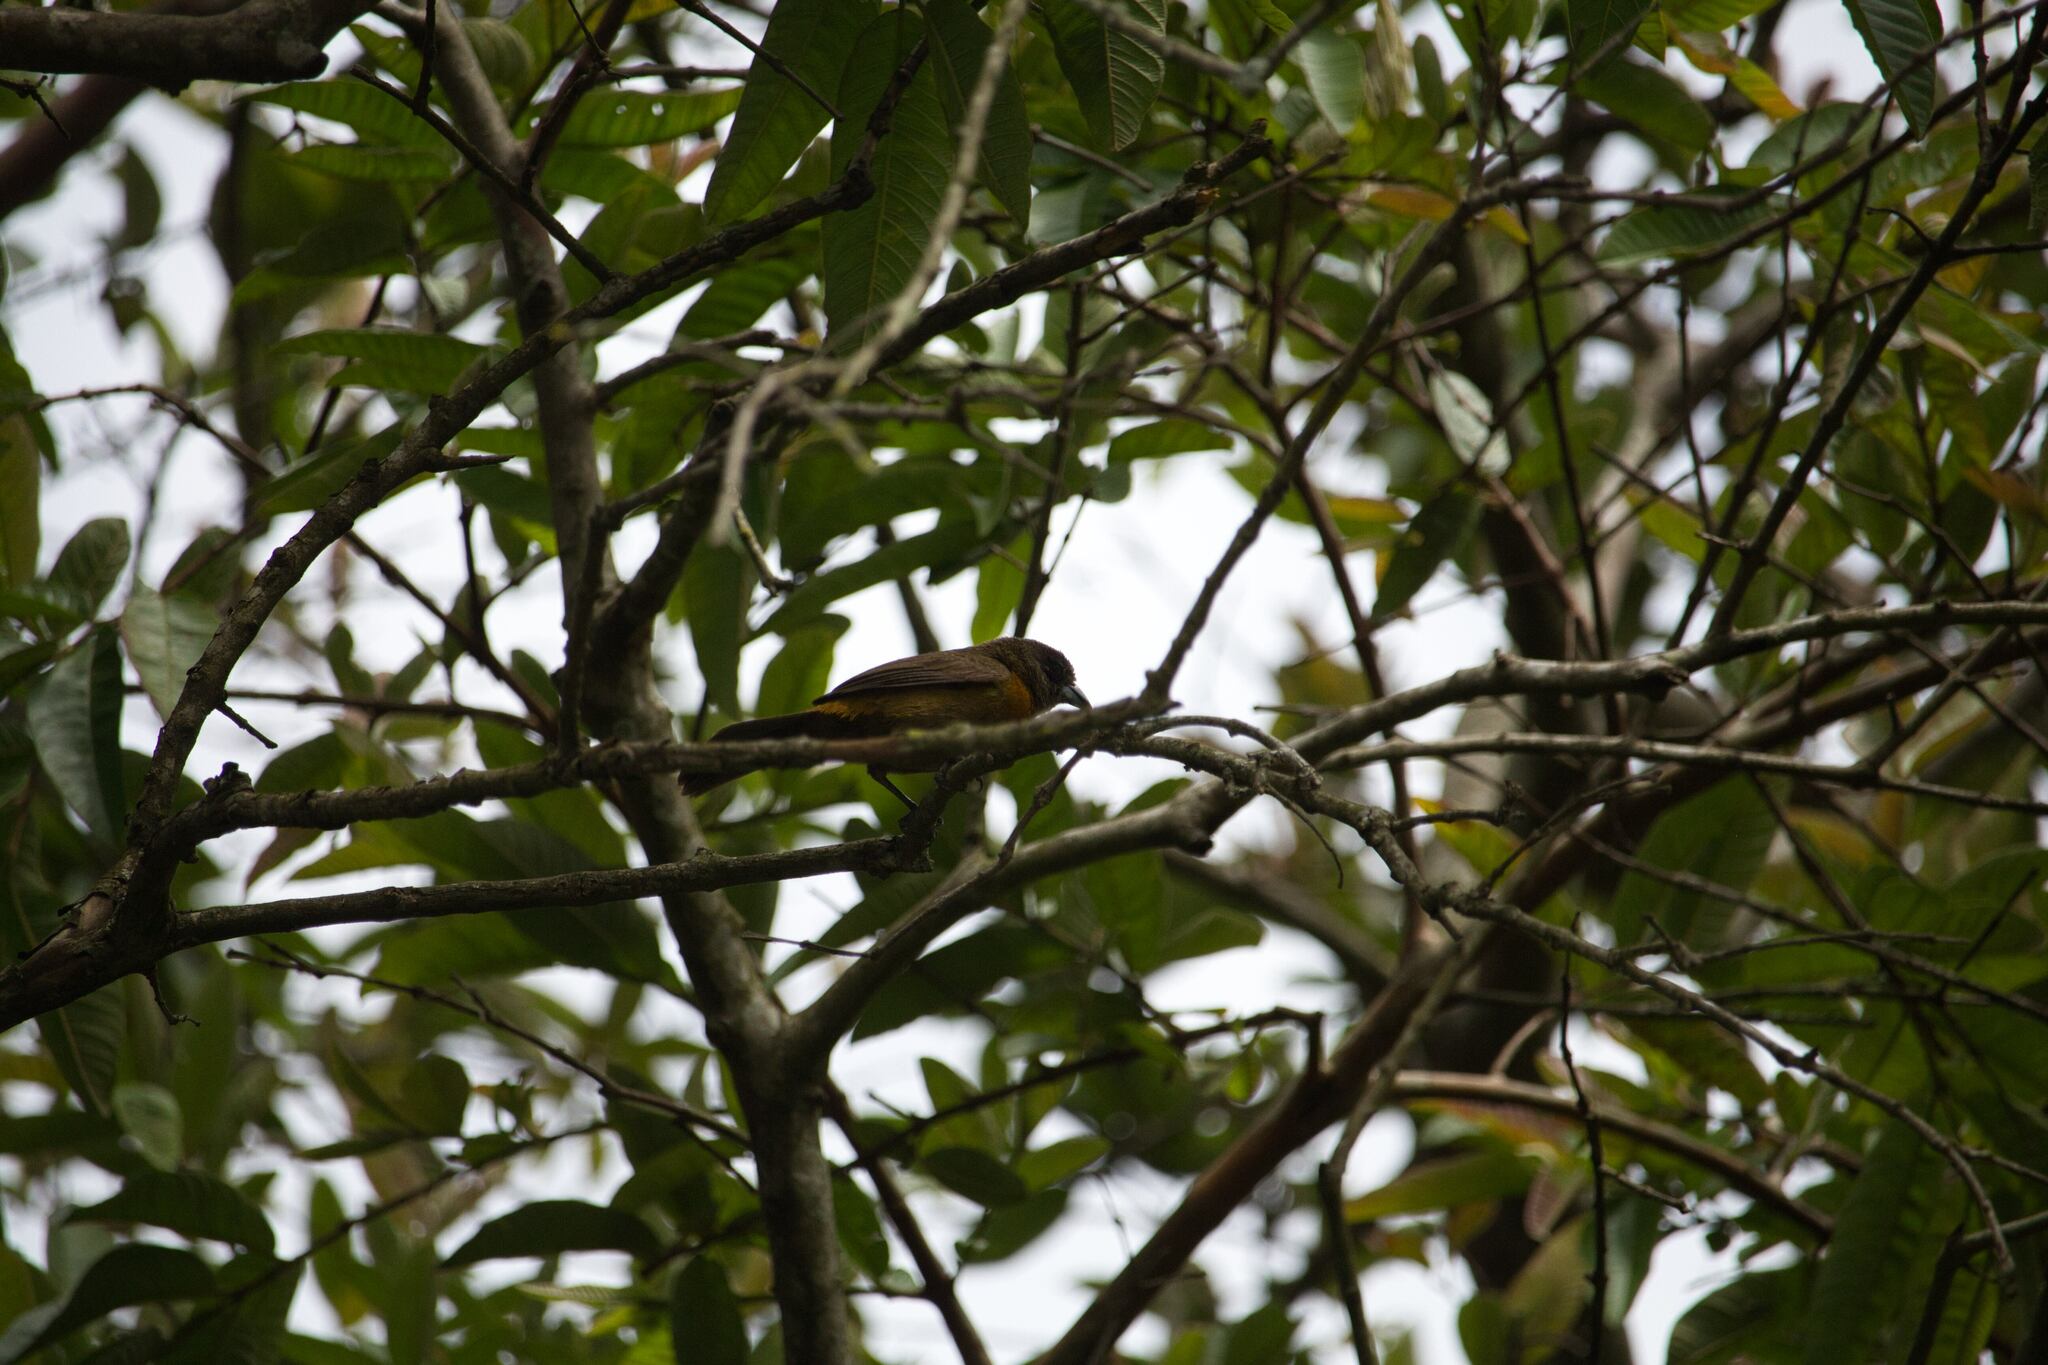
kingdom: Animalia
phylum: Chordata
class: Aves
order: Passeriformes
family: Thraupidae
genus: Ramphocelus
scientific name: Ramphocelus passerinii
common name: Passerini's tanager
